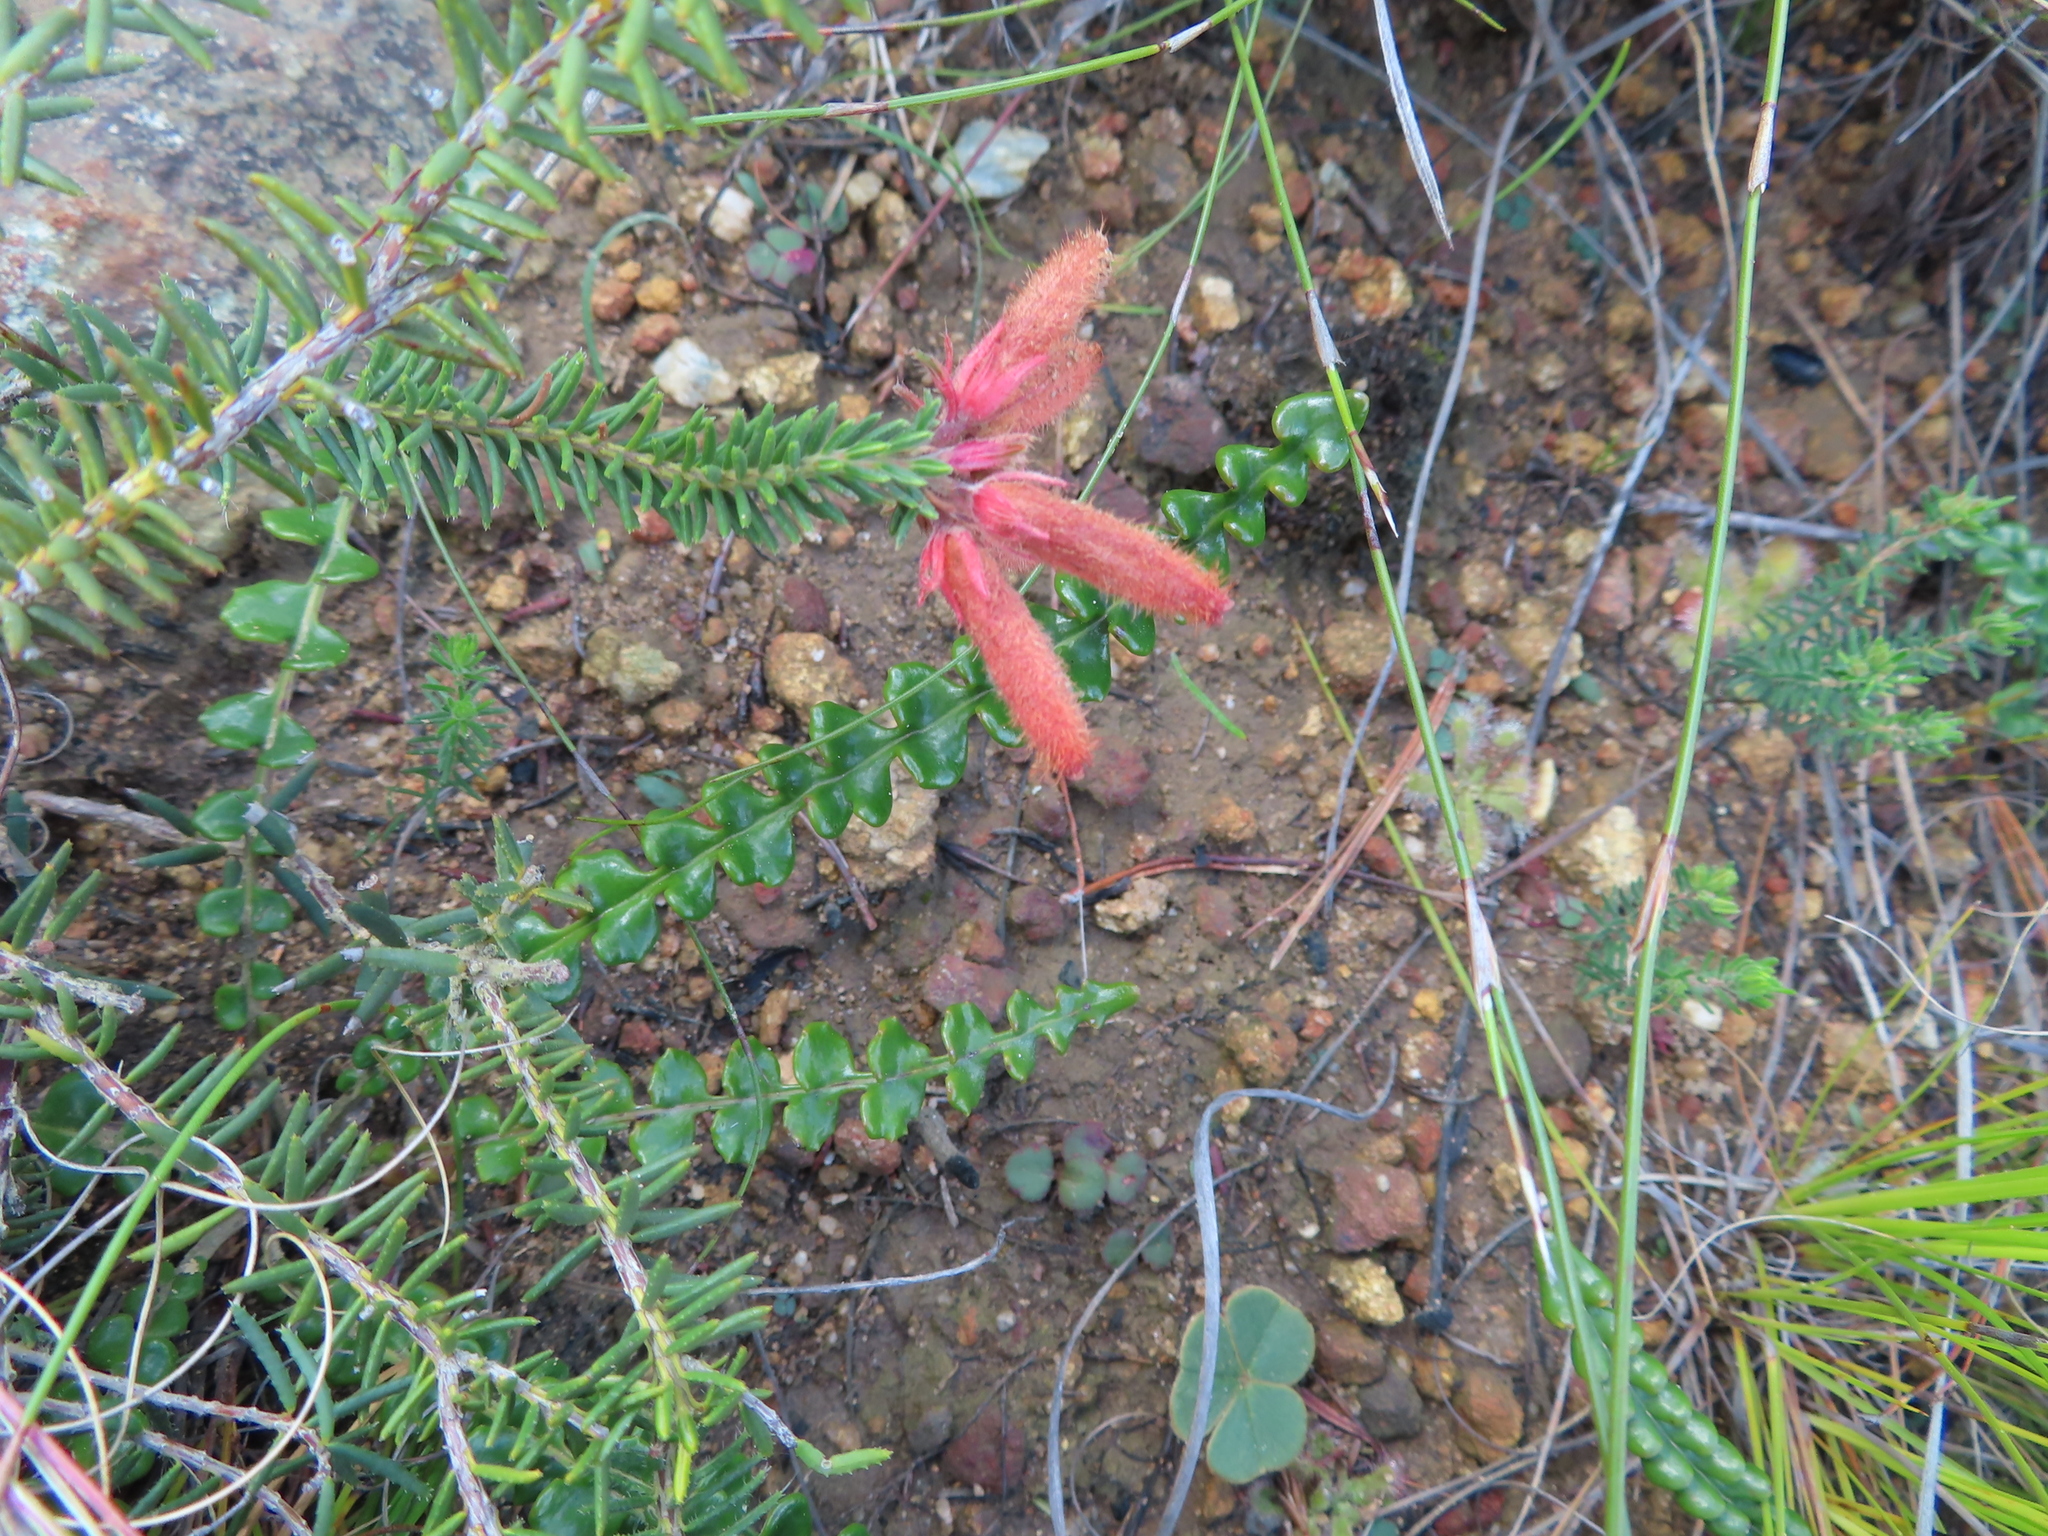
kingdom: Plantae
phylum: Tracheophyta
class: Magnoliopsida
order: Ericales
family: Ericaceae
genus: Erica
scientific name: Erica cerinthoides
